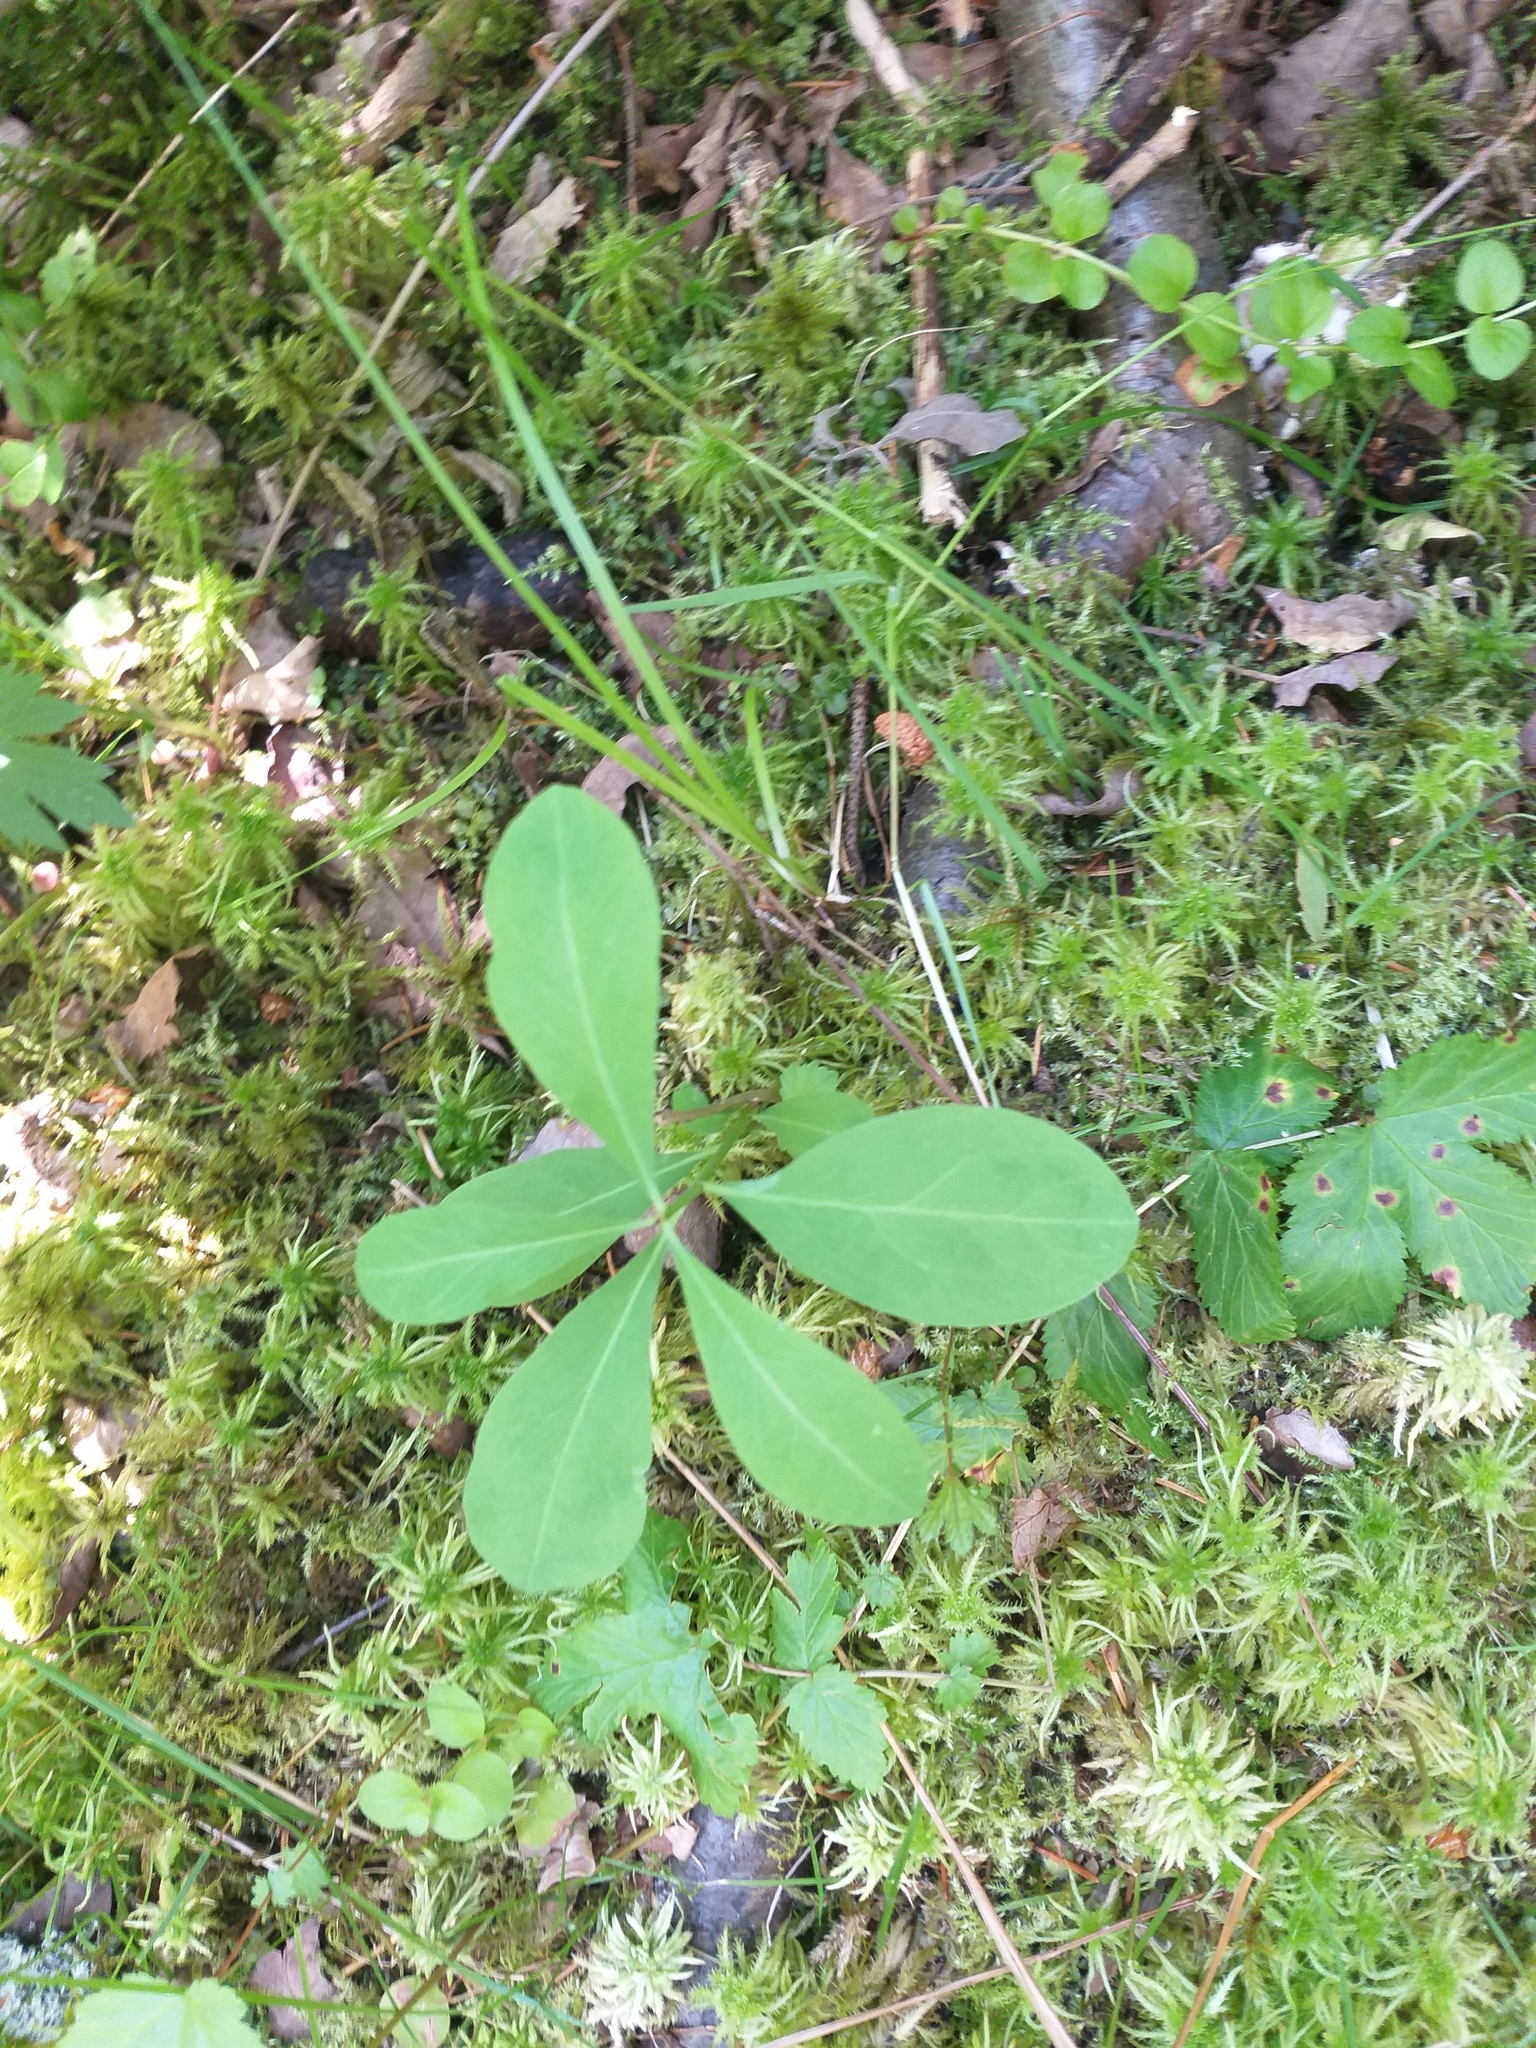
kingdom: Plantae
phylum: Tracheophyta
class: Magnoliopsida
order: Malvales
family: Thymelaeaceae
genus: Daphne
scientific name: Daphne mezereum
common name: Mezereon
